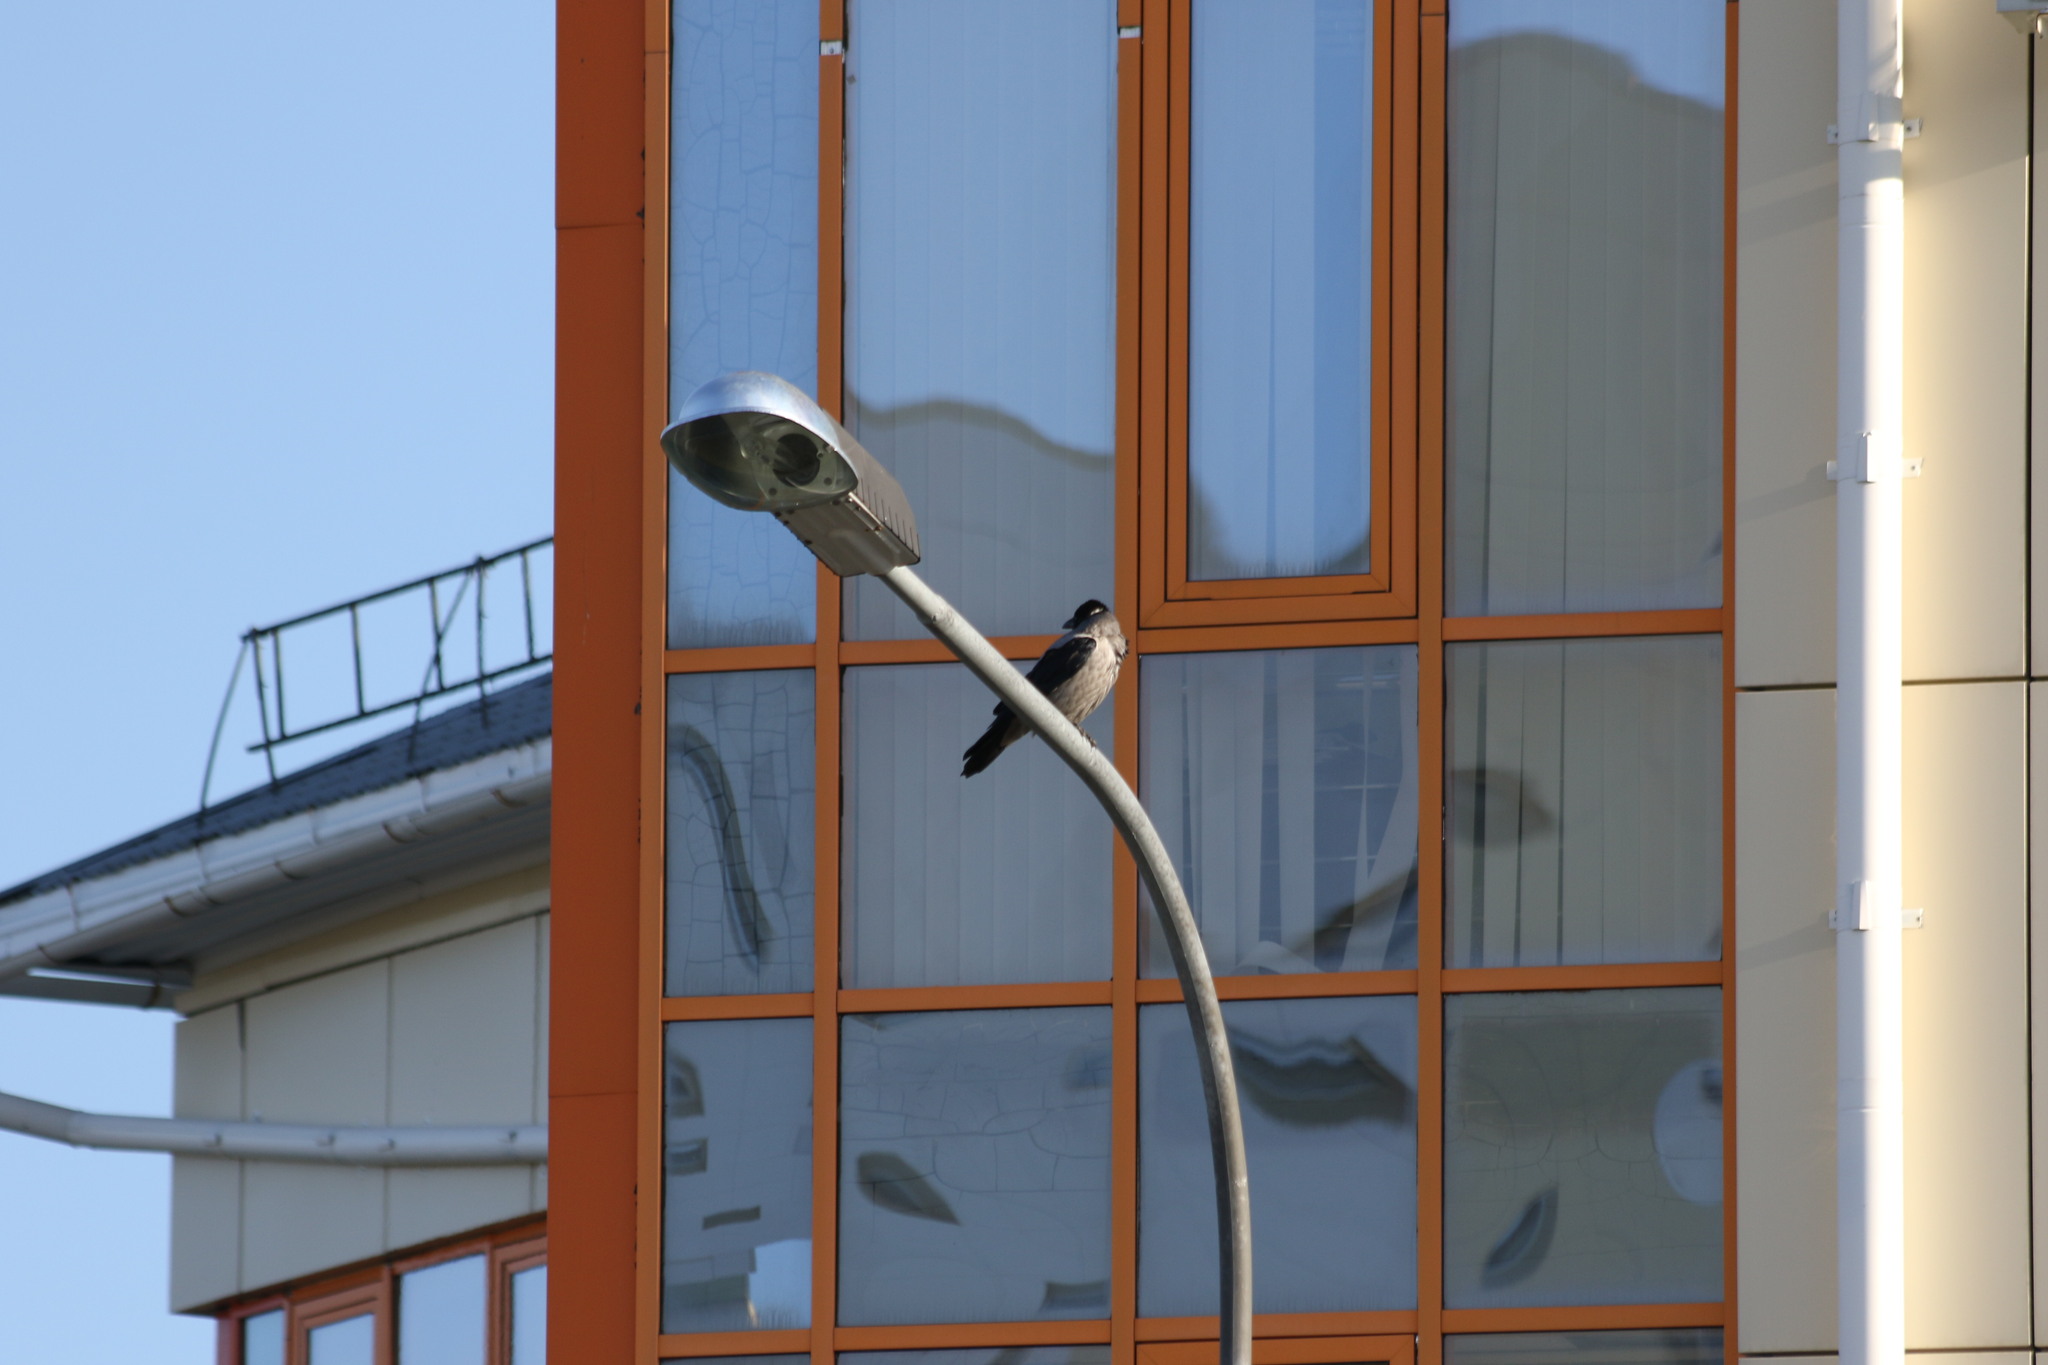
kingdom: Animalia
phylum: Chordata
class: Aves
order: Passeriformes
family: Corvidae
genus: Corvus
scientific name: Corvus cornix
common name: Hooded crow
